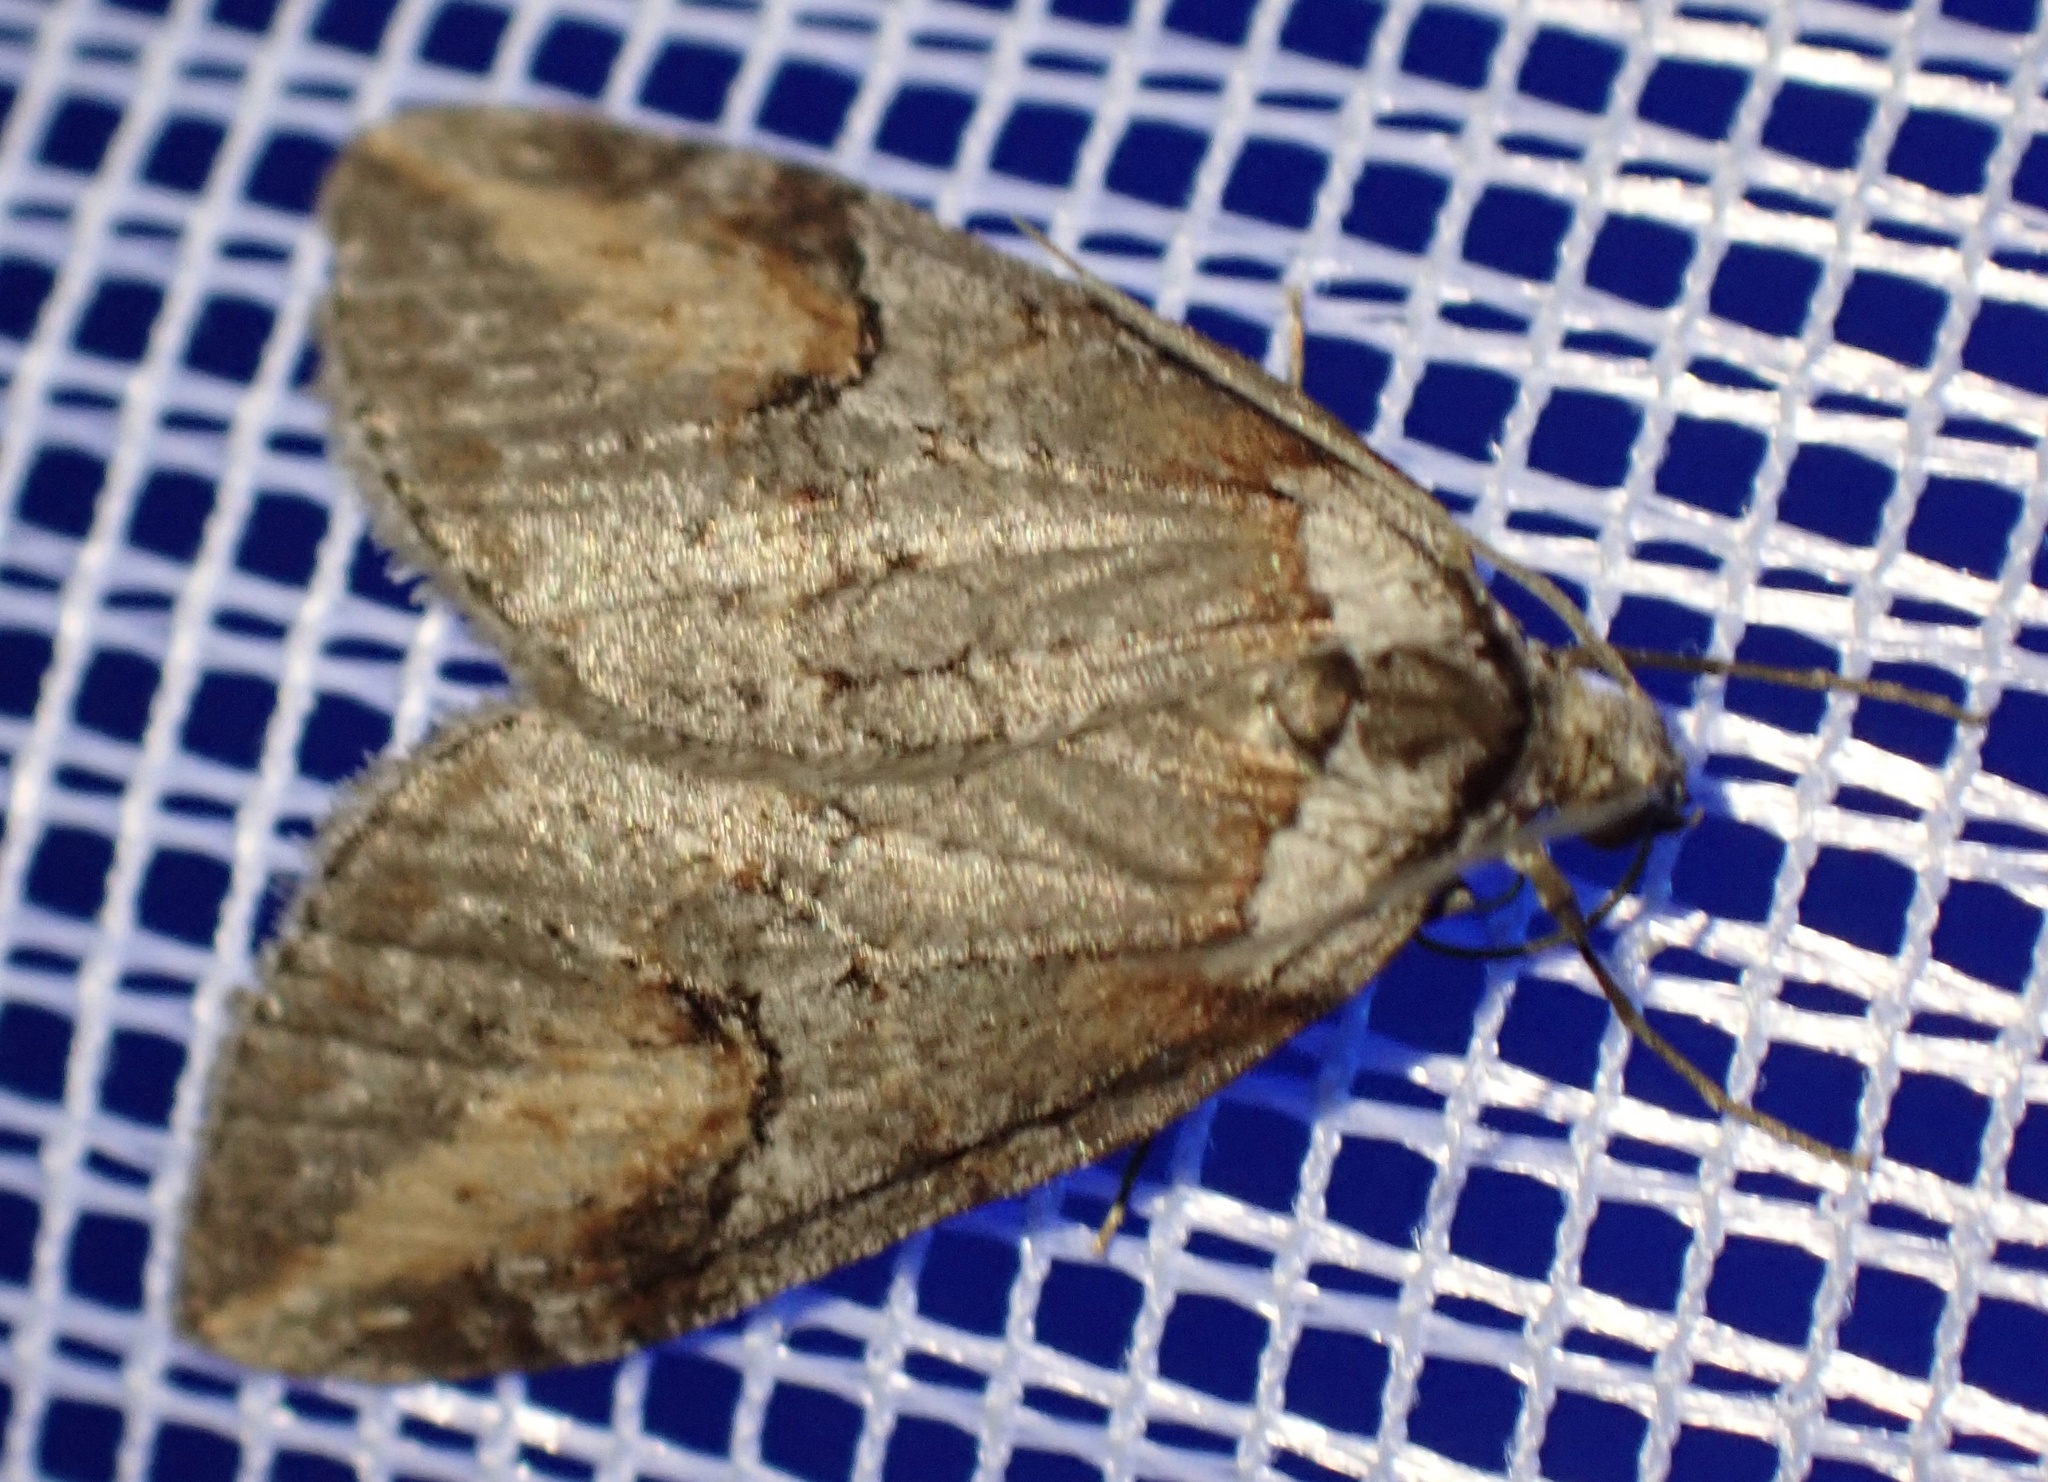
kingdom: Animalia
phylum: Arthropoda
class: Insecta
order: Lepidoptera
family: Geometridae
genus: Chesias
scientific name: Chesias rufata
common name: Broom-tip
